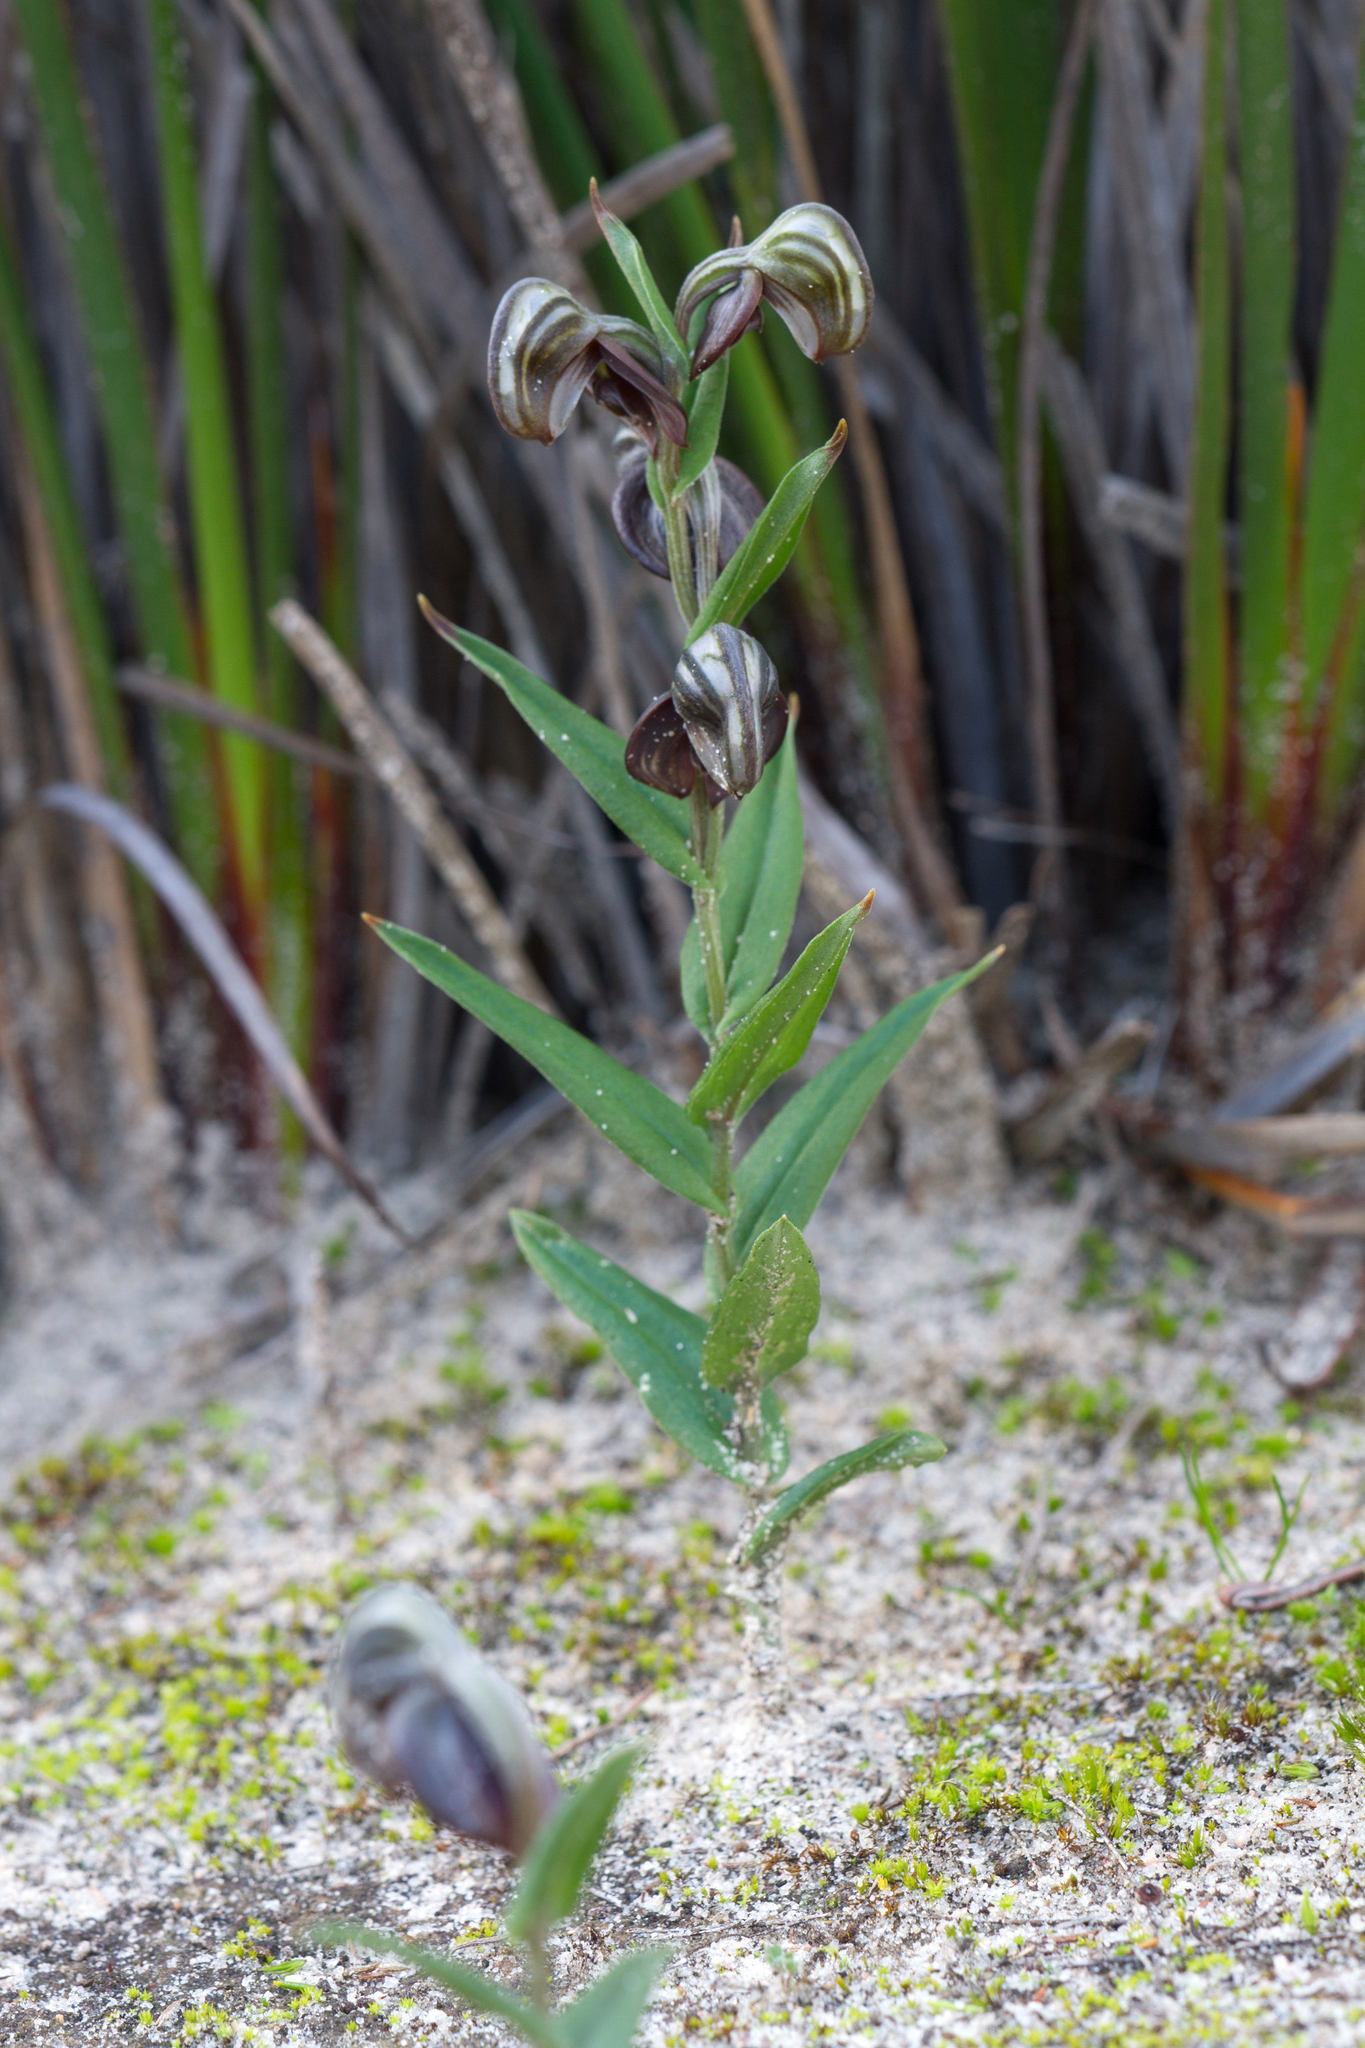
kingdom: Plantae
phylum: Tracheophyta
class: Liliopsida
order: Asparagales
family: Orchidaceae
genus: Pterostylis
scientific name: Pterostylis sanguinea
